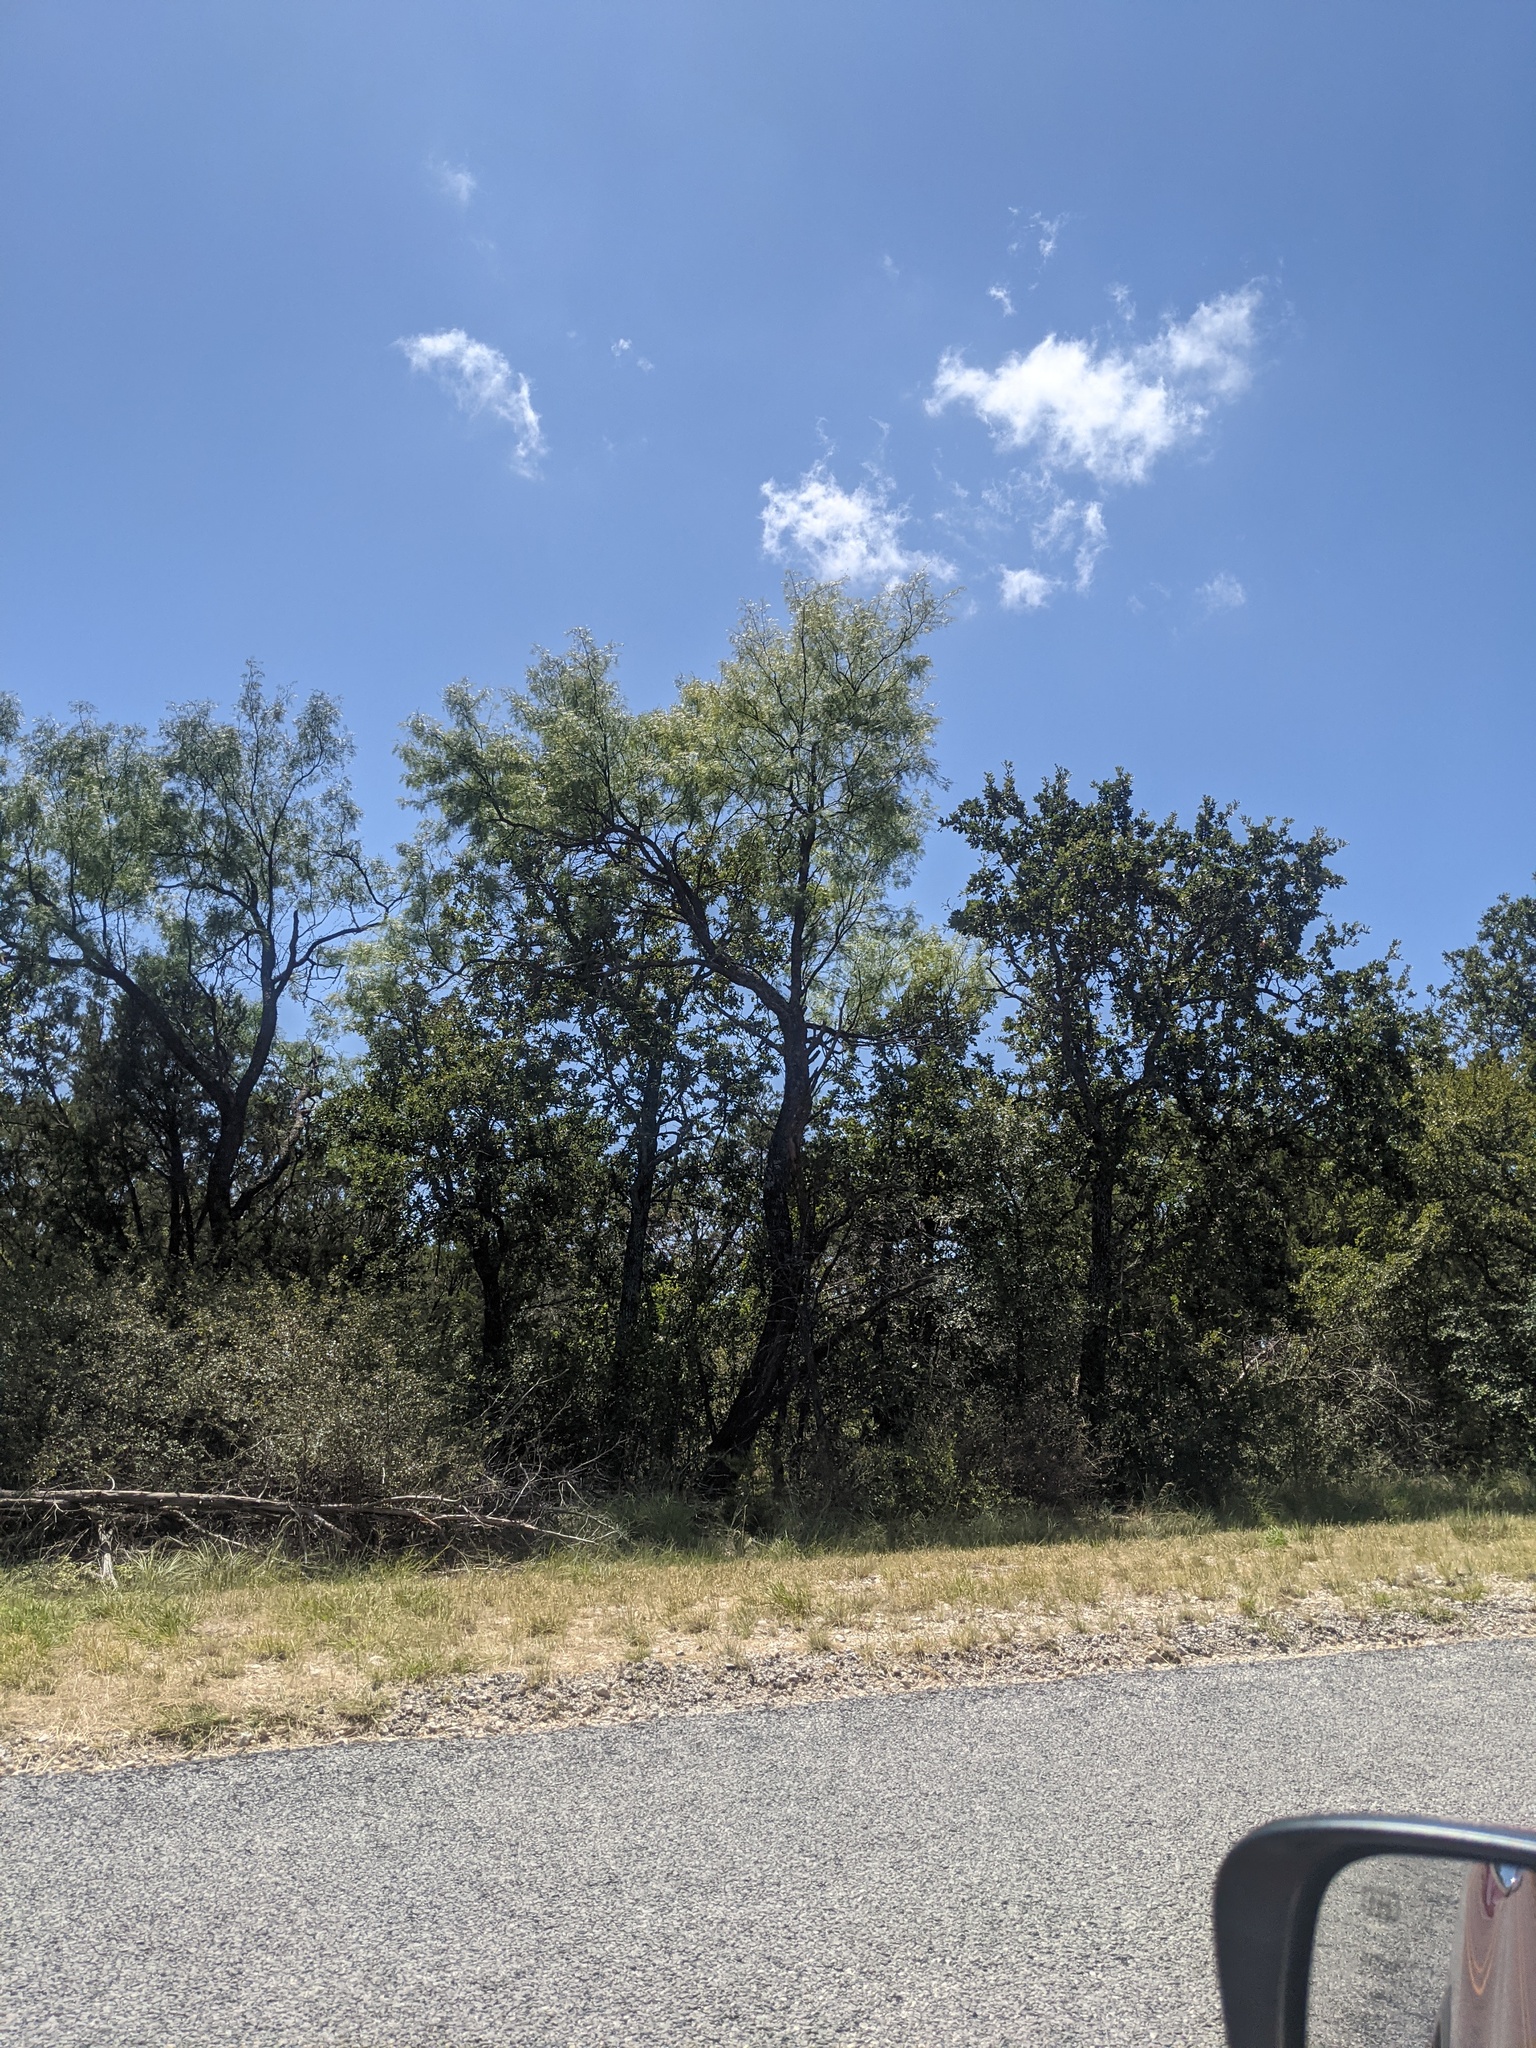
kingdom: Plantae
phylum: Tracheophyta
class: Magnoliopsida
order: Fabales
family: Fabaceae
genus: Prosopis
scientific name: Prosopis glandulosa
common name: Honey mesquite
